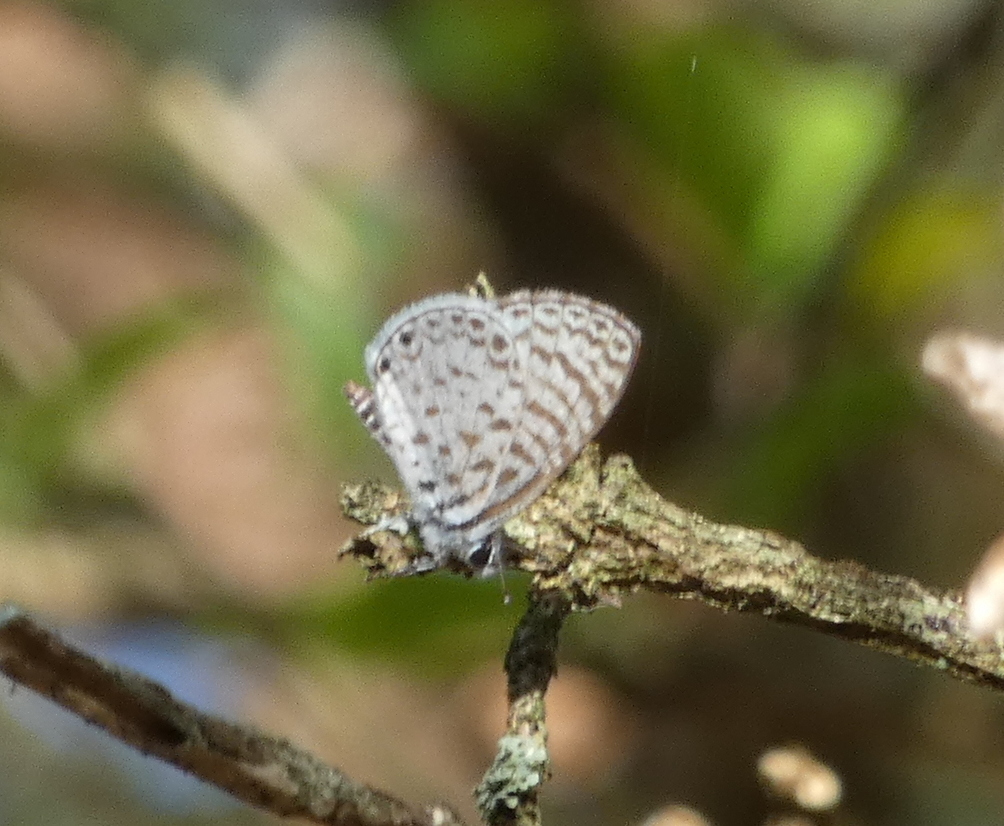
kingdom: Animalia
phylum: Arthropoda
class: Insecta
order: Lepidoptera
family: Lycaenidae
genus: Leptotes
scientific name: Leptotes cassius
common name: Cassius blue
